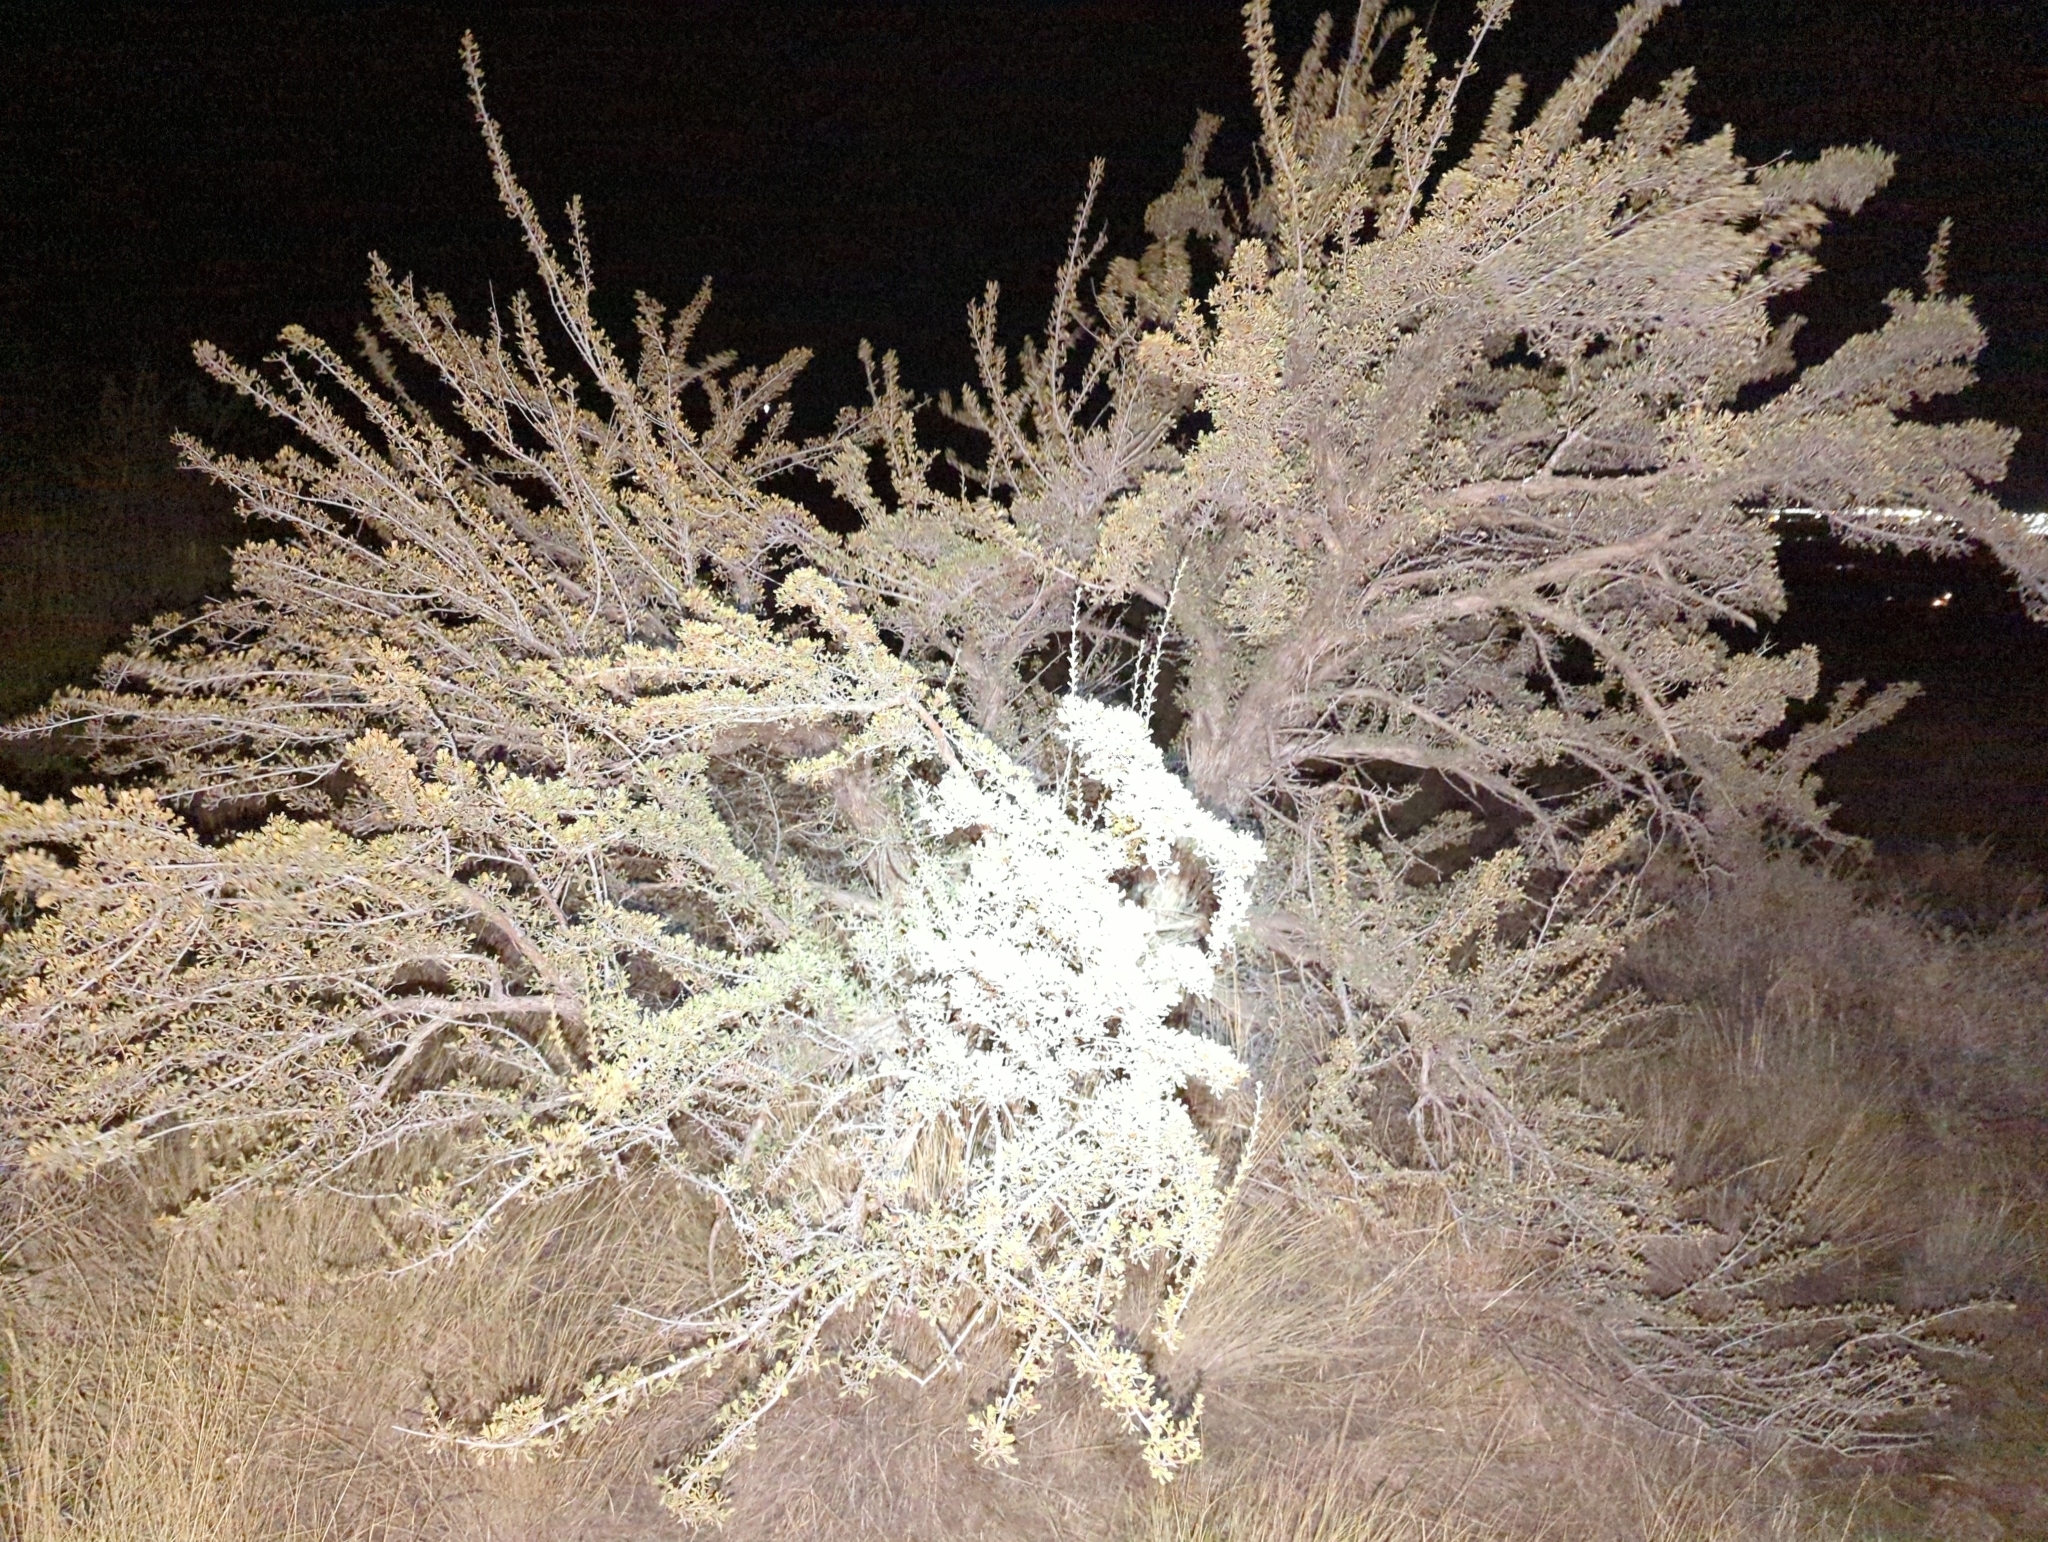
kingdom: Plantae
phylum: Tracheophyta
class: Magnoliopsida
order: Rosales
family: Rosaceae
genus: Purshia
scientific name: Purshia tridentata
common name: Antelope bitterbrush
